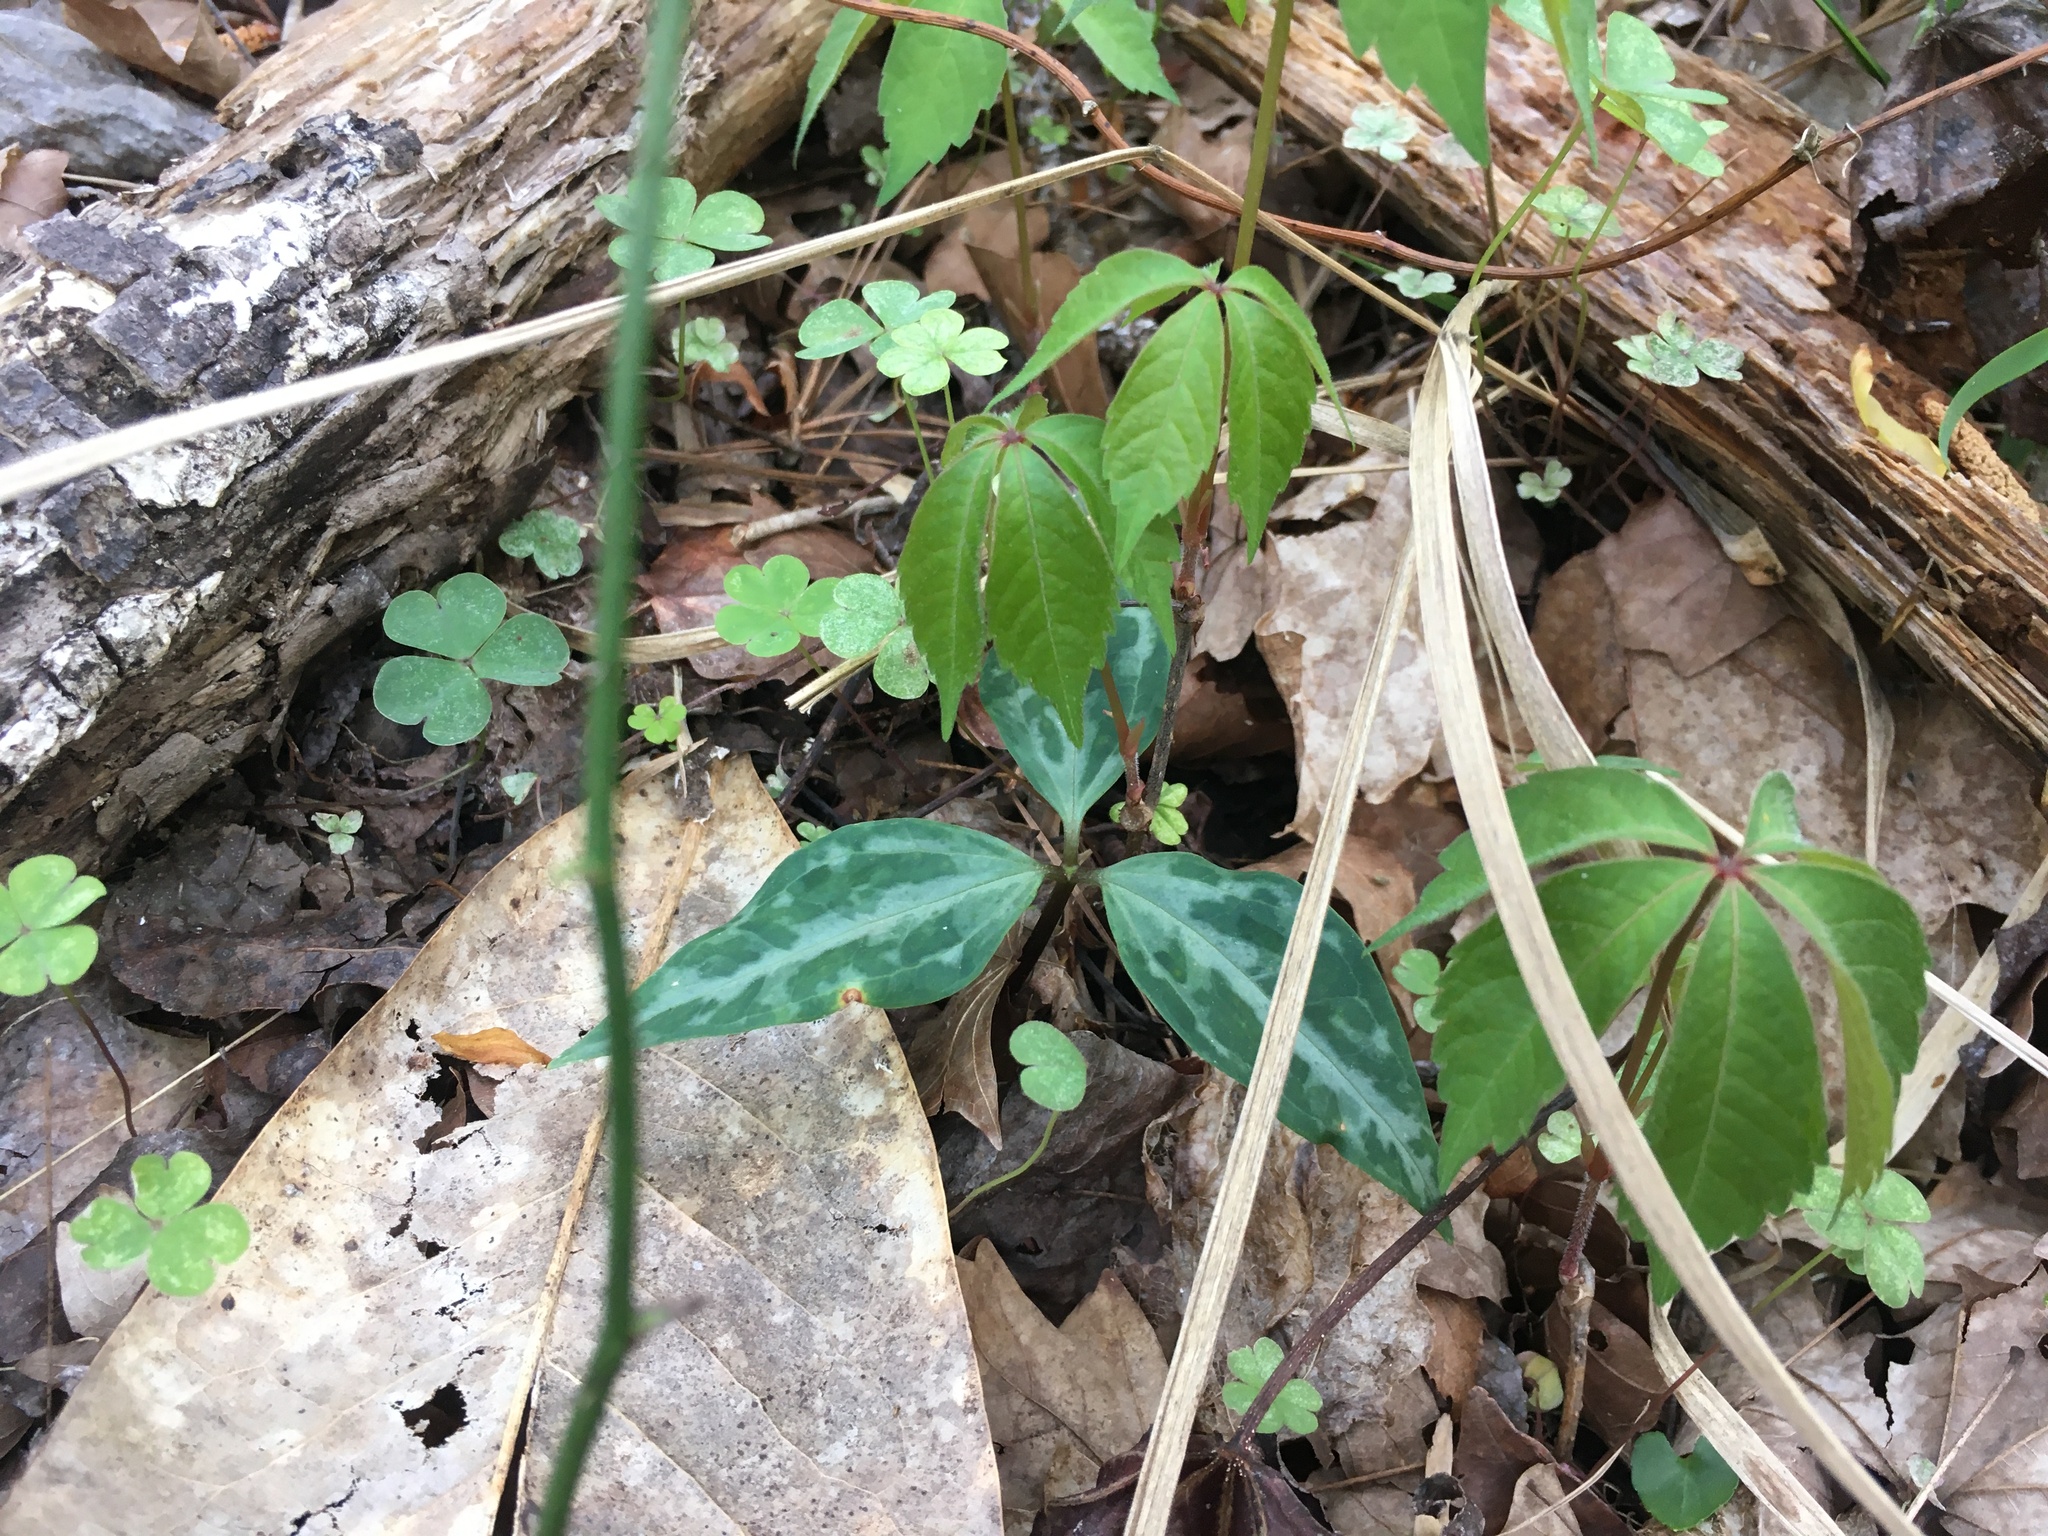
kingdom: Plantae
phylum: Tracheophyta
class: Liliopsida
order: Liliales
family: Melanthiaceae
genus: Trillium
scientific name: Trillium lancifolium
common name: Lance-leaved trillium
